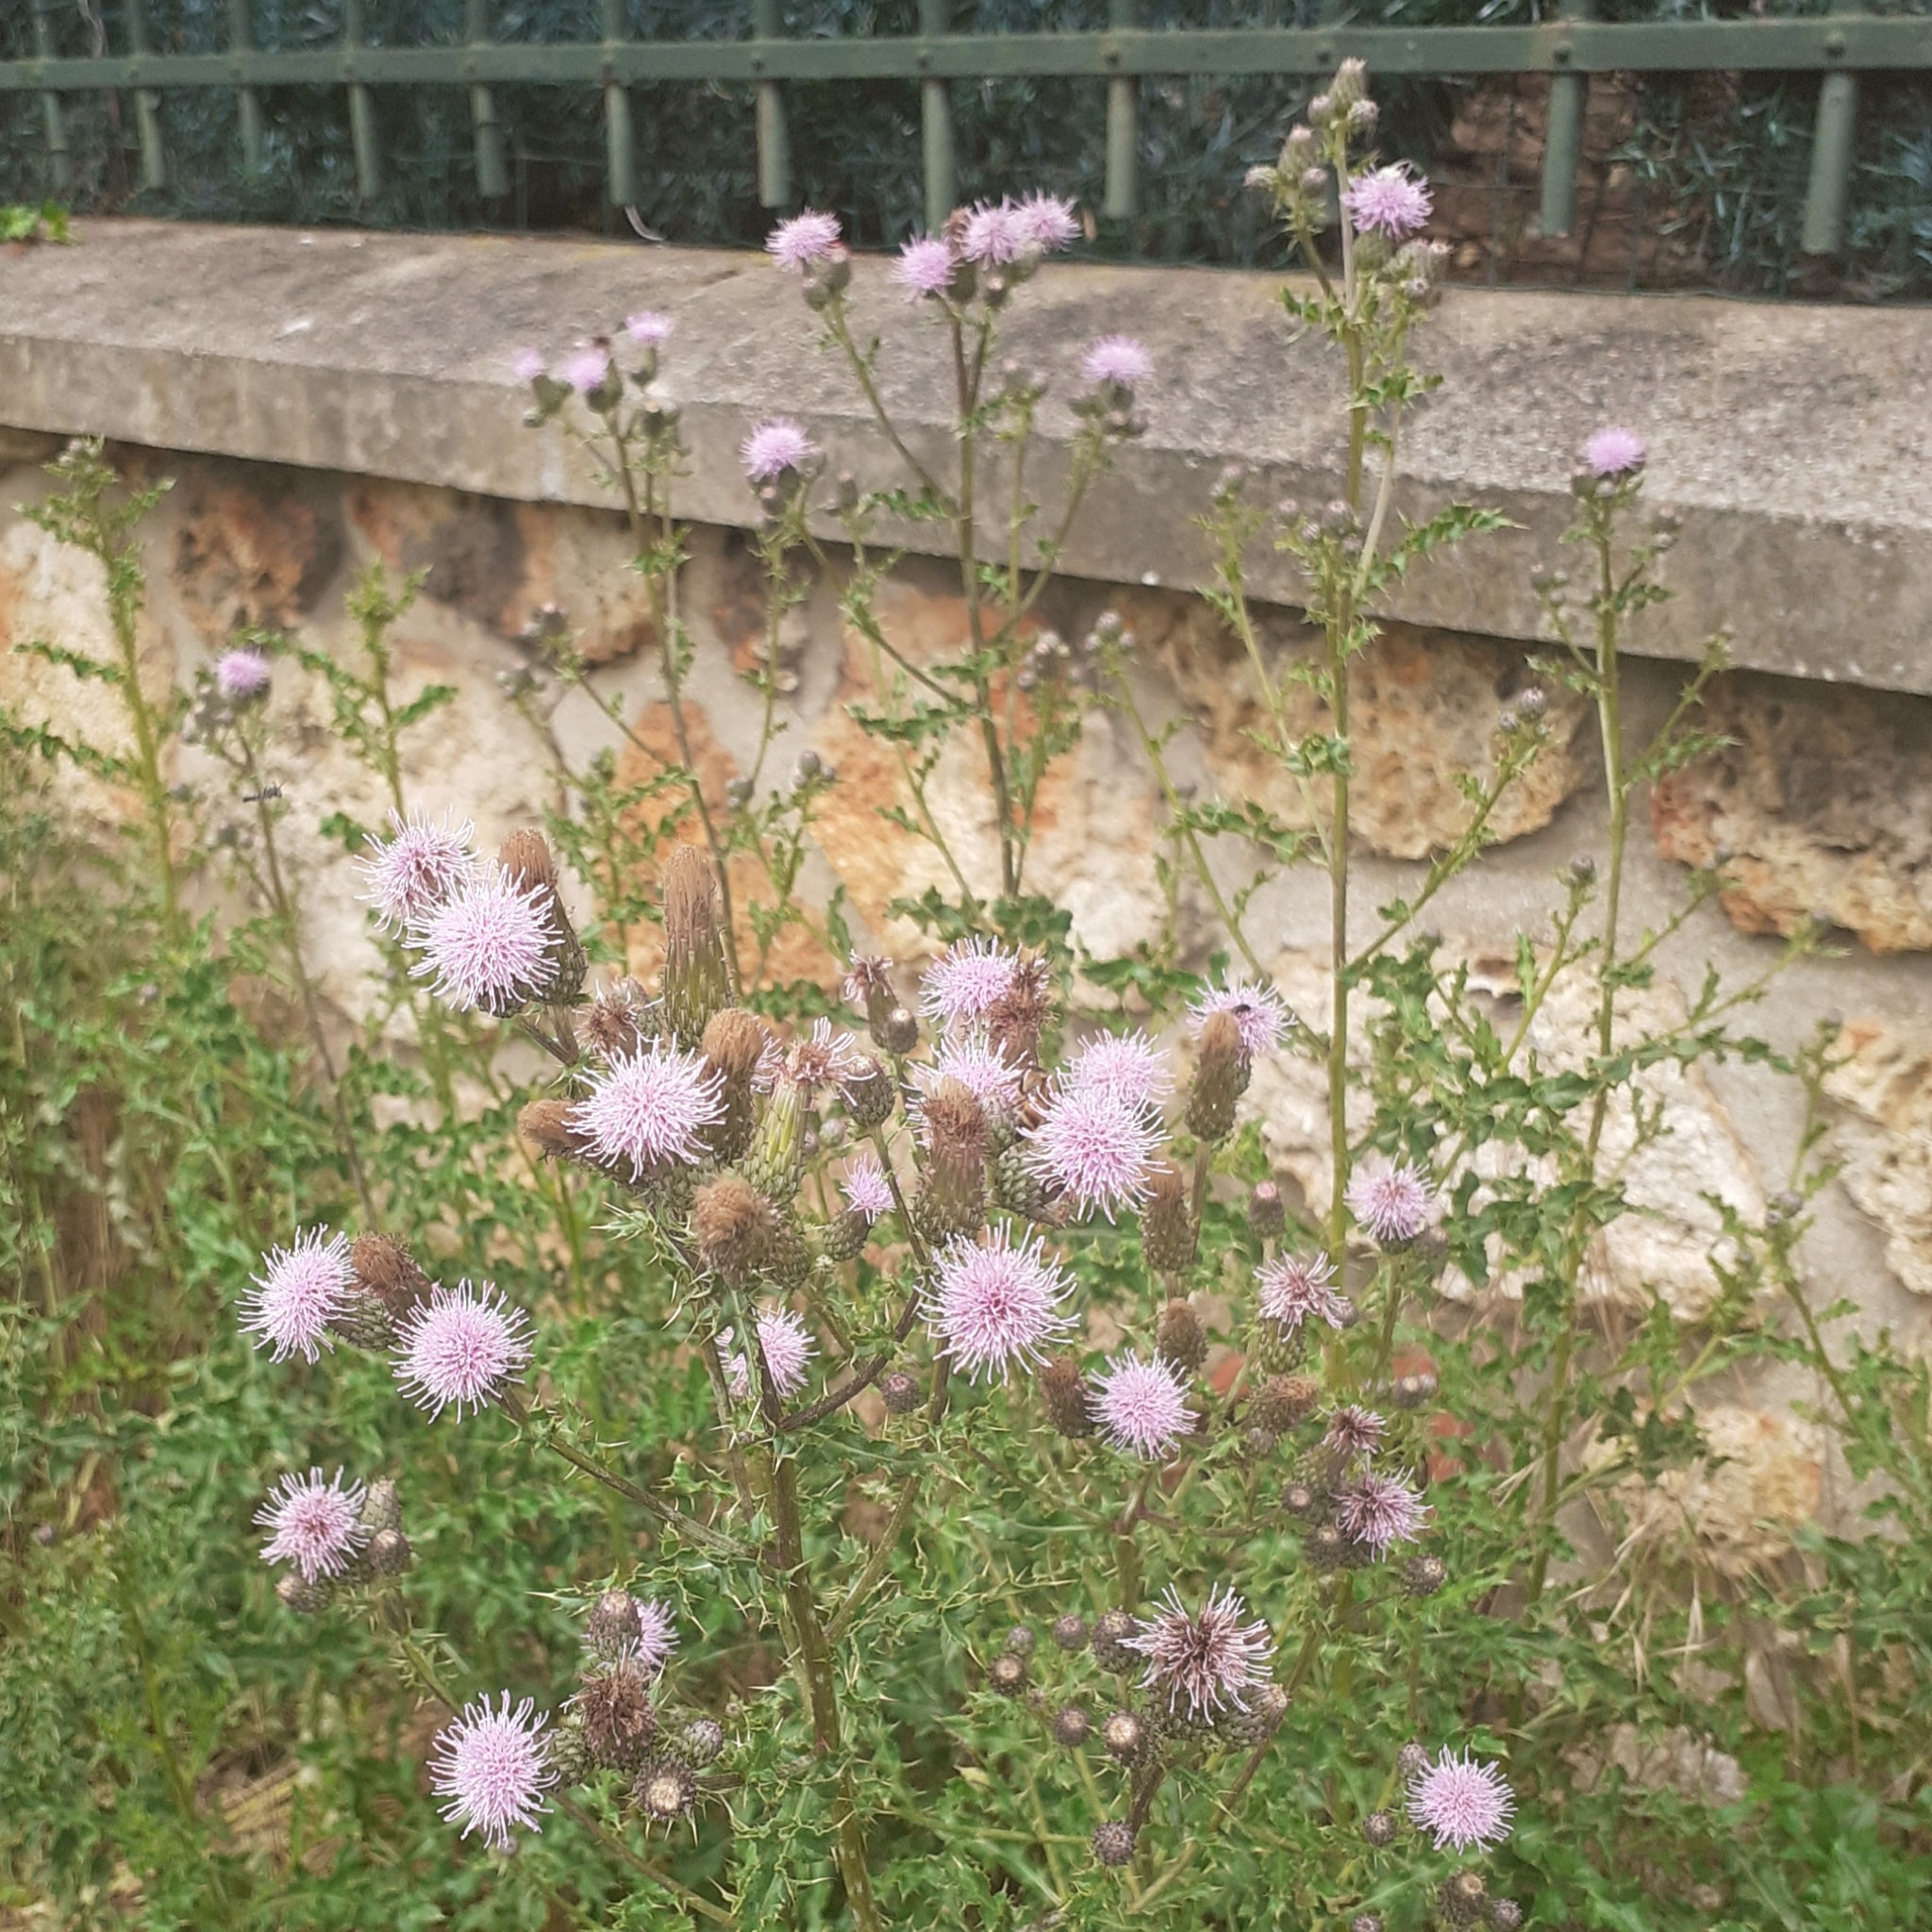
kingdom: Plantae
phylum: Tracheophyta
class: Magnoliopsida
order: Asterales
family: Asteraceae
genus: Cirsium
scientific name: Cirsium arvense
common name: Creeping thistle
